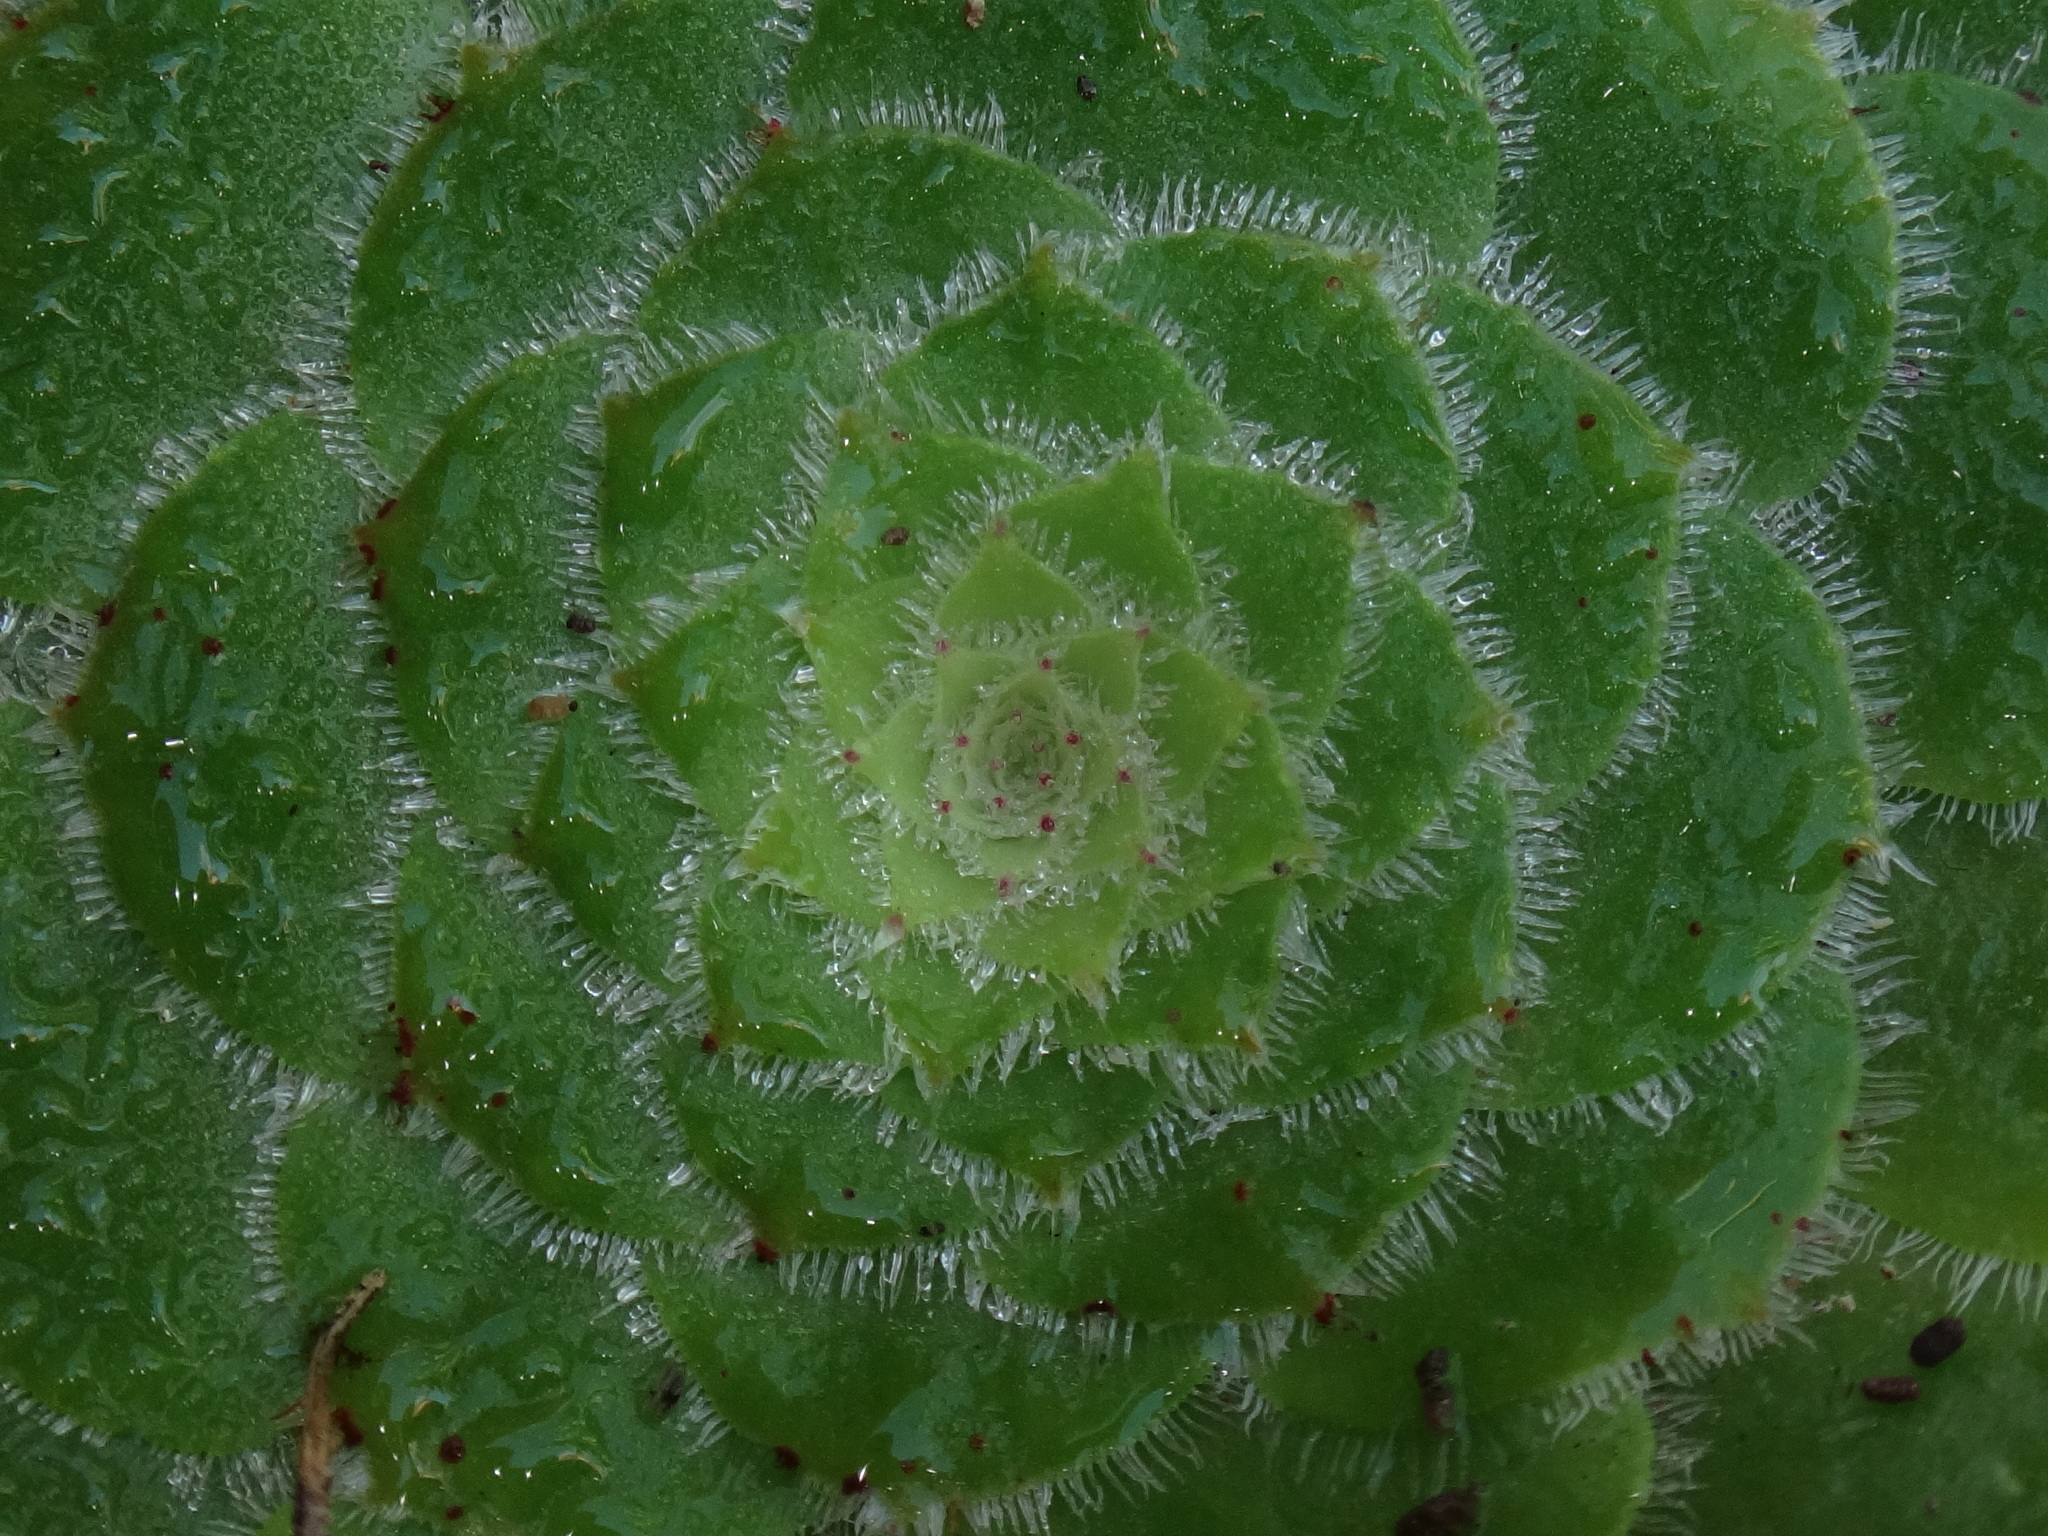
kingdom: Plantae
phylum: Tracheophyta
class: Magnoliopsida
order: Saxifragales
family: Crassulaceae
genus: Aeonium
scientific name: Aeonium tabulaeforme
